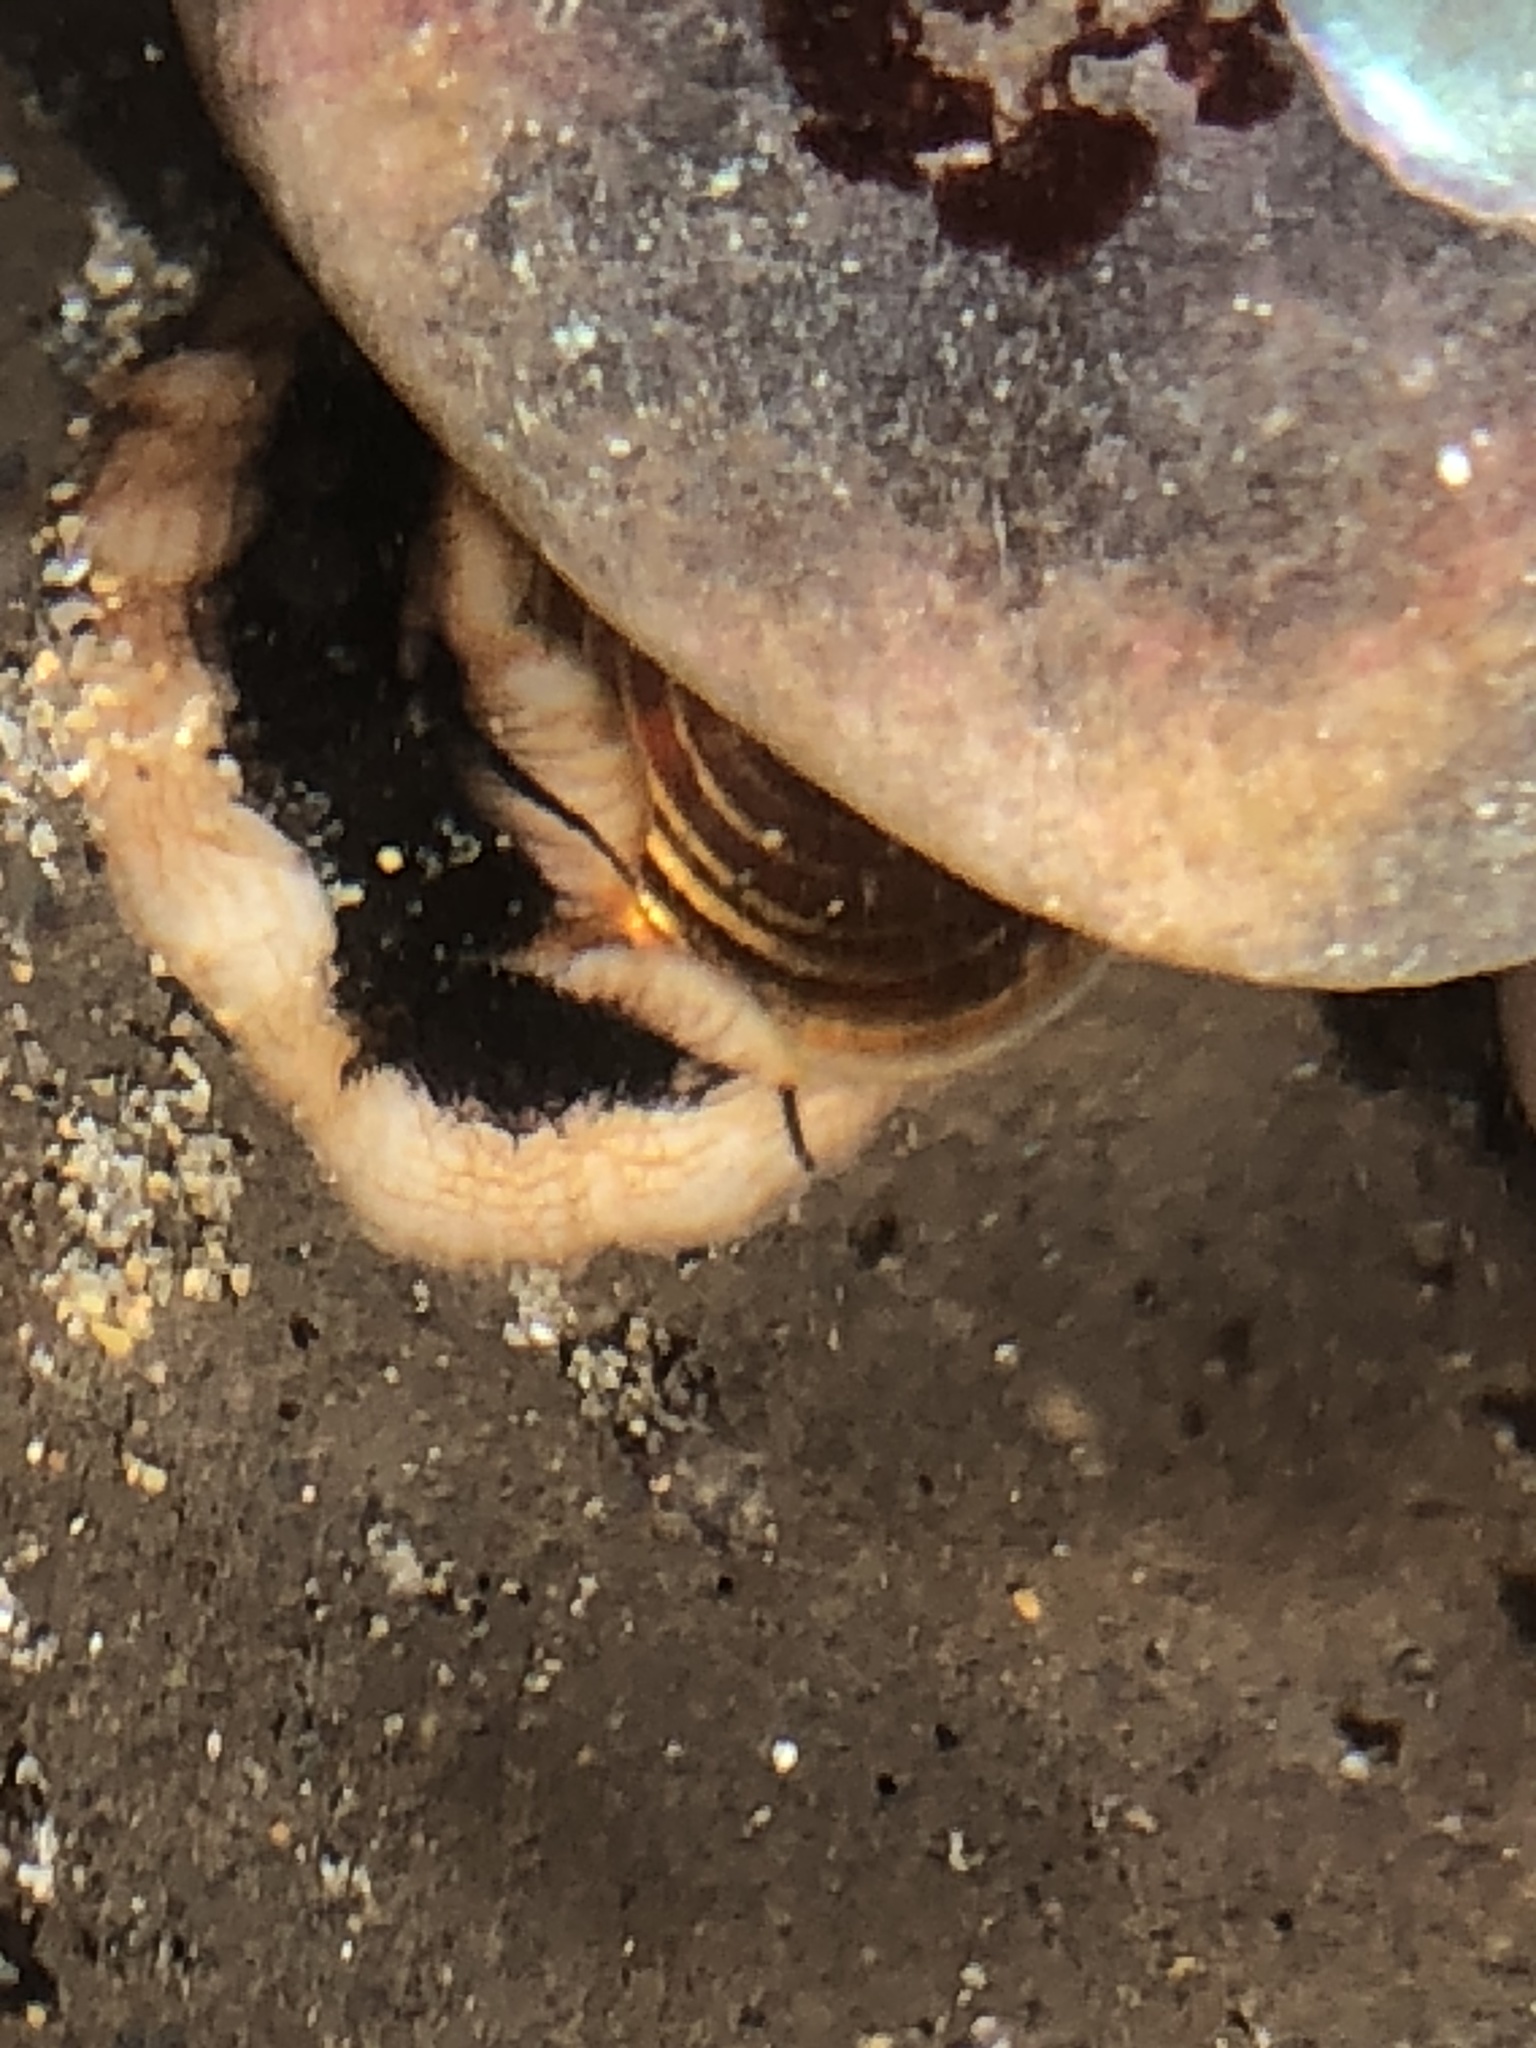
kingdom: Animalia
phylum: Mollusca
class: Gastropoda
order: Trochida
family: Tegulidae
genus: Tegula
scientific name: Tegula brunnea
